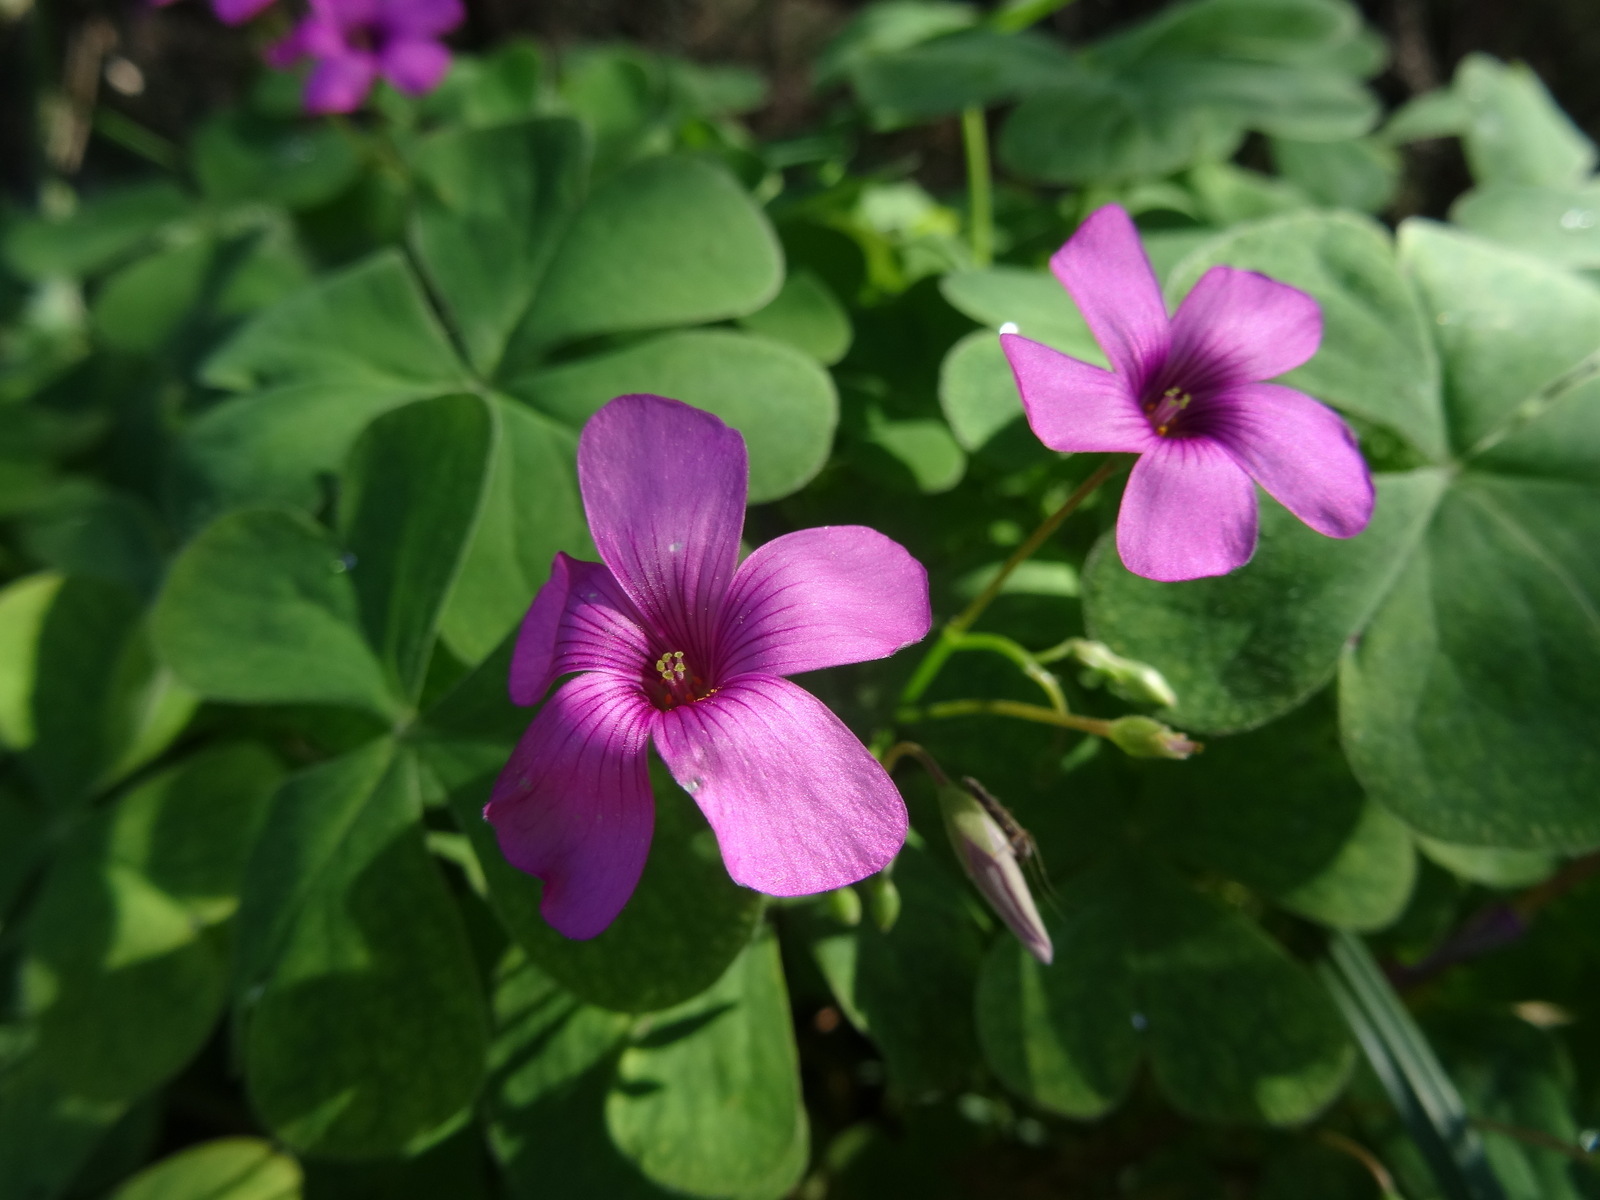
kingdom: Plantae
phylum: Tracheophyta
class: Magnoliopsida
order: Oxalidales
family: Oxalidaceae
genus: Oxalis
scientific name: Oxalis articulata
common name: Pink-sorrel
